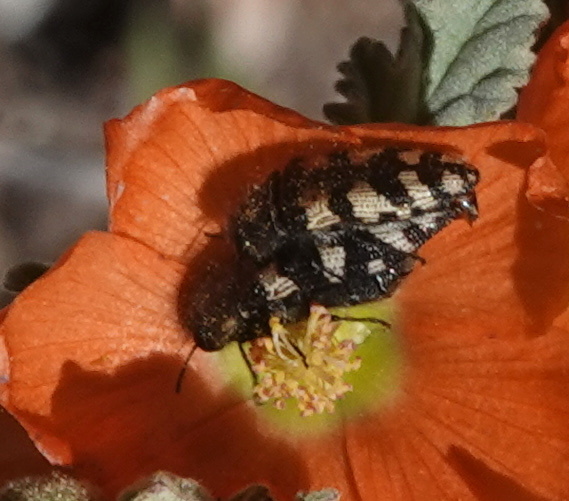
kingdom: Animalia
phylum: Arthropoda
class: Insecta
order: Coleoptera
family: Buprestidae
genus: Acmaeodera
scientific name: Acmaeodera diffusa
